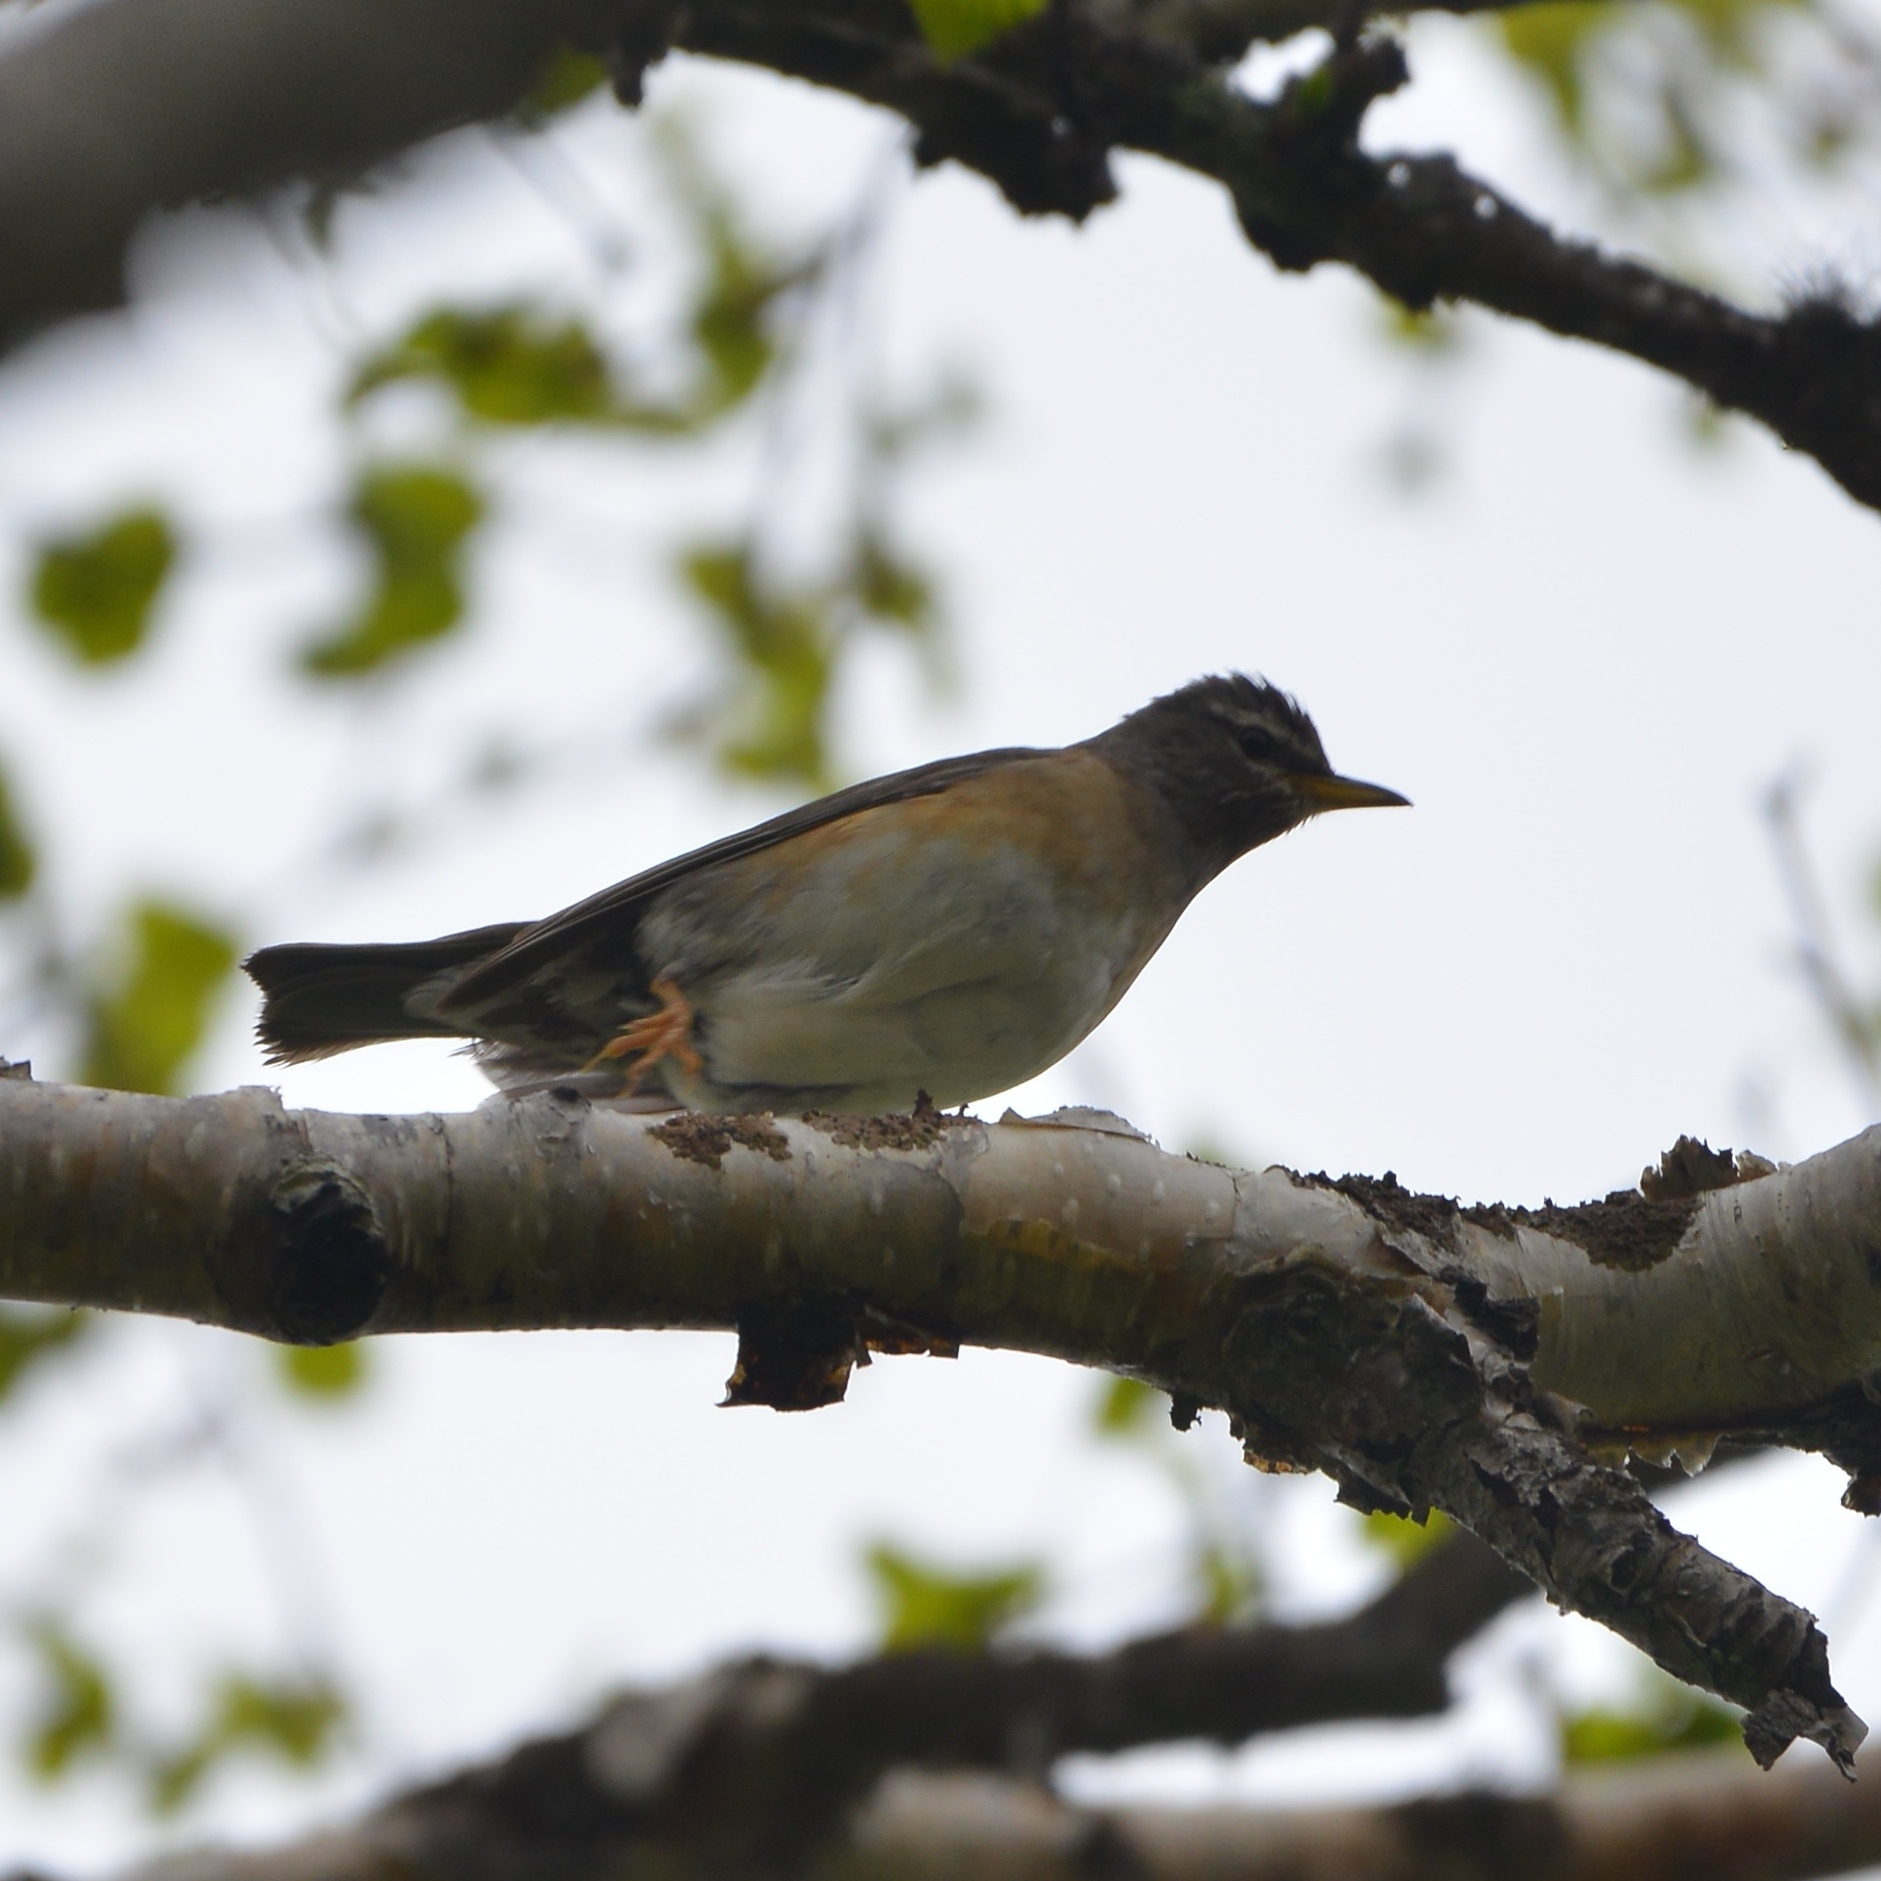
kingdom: Animalia
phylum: Chordata
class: Aves
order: Passeriformes
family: Turdidae
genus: Turdus
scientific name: Turdus obscurus
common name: Eyebrowed thrush
